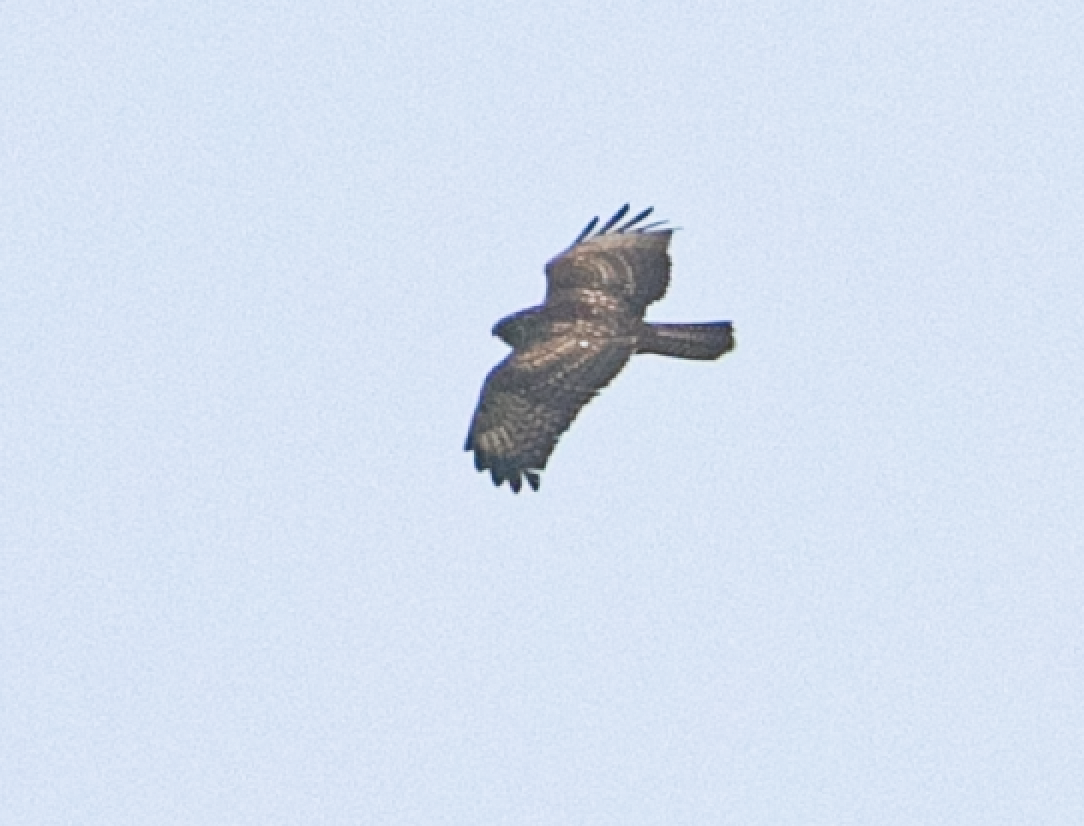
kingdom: Animalia
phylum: Chordata
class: Aves
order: Accipitriformes
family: Accipitridae
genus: Buteo
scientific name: Buteo buteo
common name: Common buzzard
